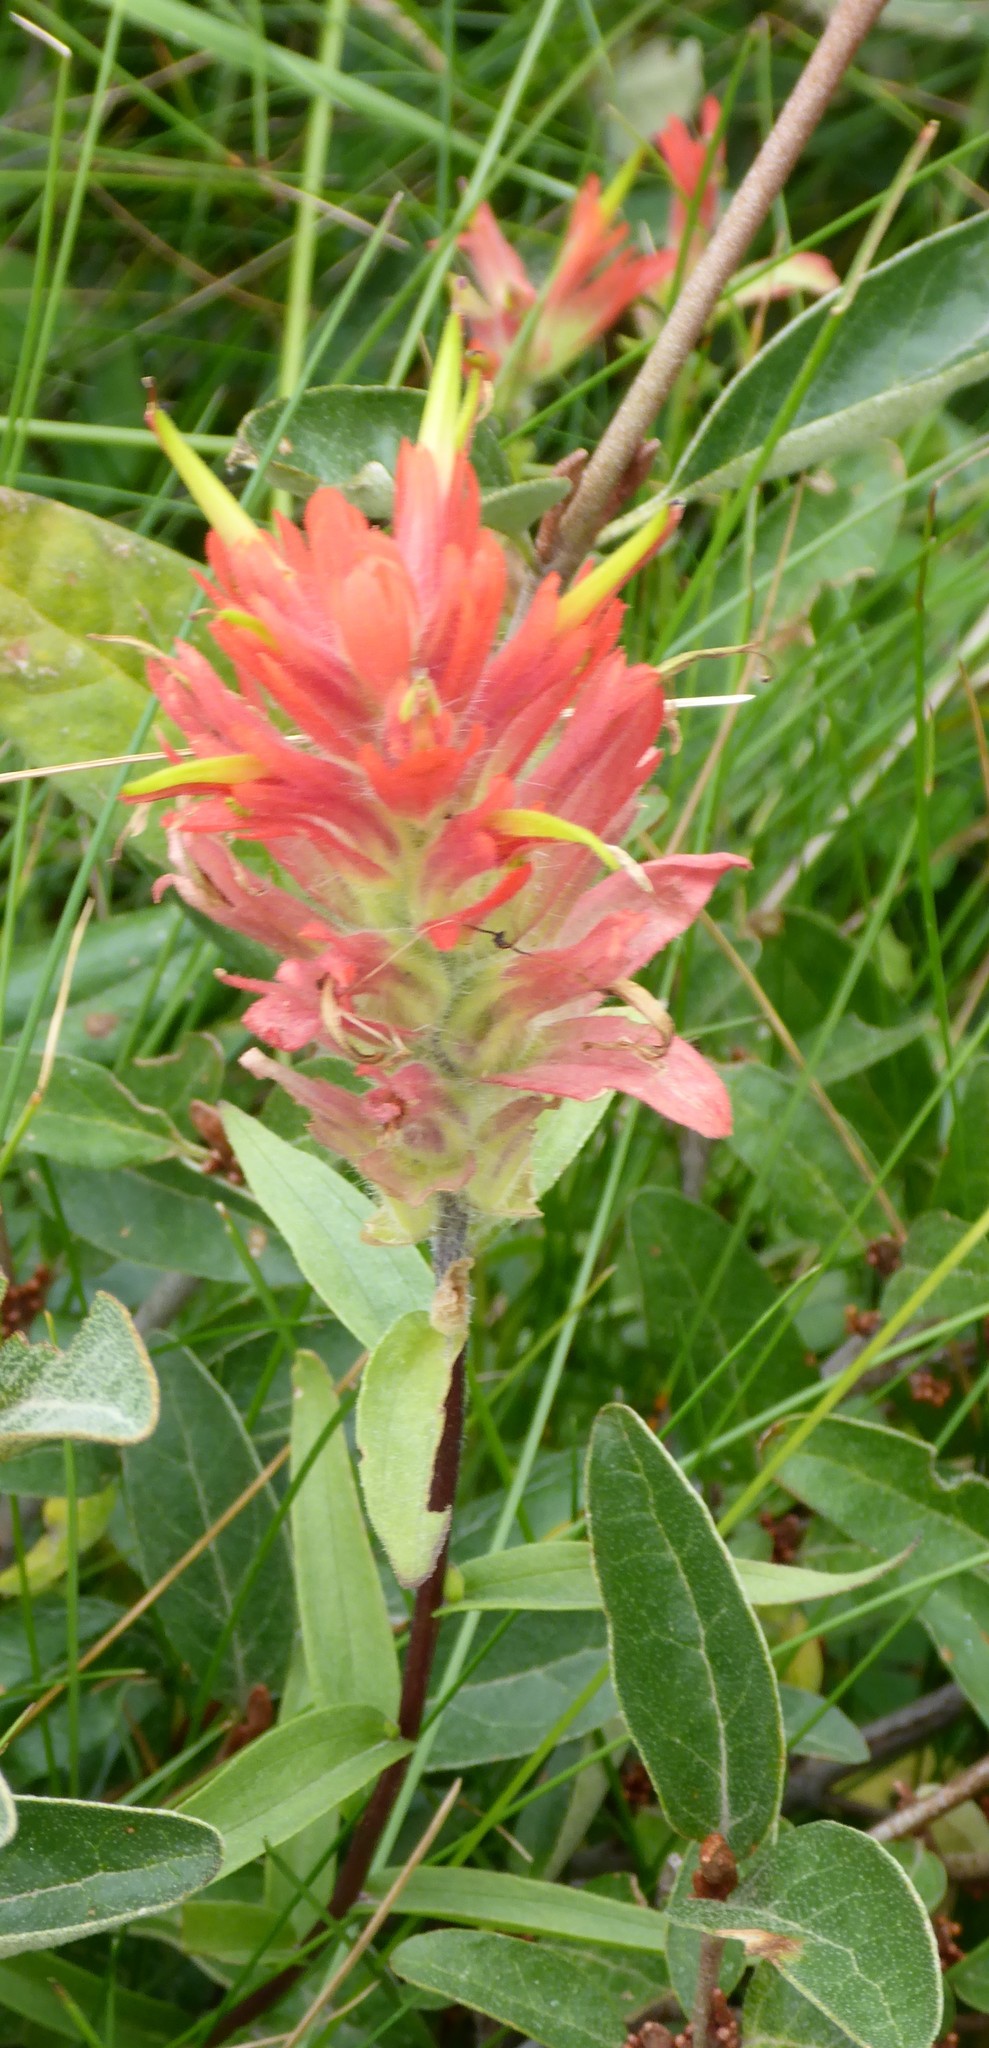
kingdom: Plantae
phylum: Tracheophyta
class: Magnoliopsida
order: Lamiales
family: Orobanchaceae
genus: Castilleja
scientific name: Castilleja miniata
